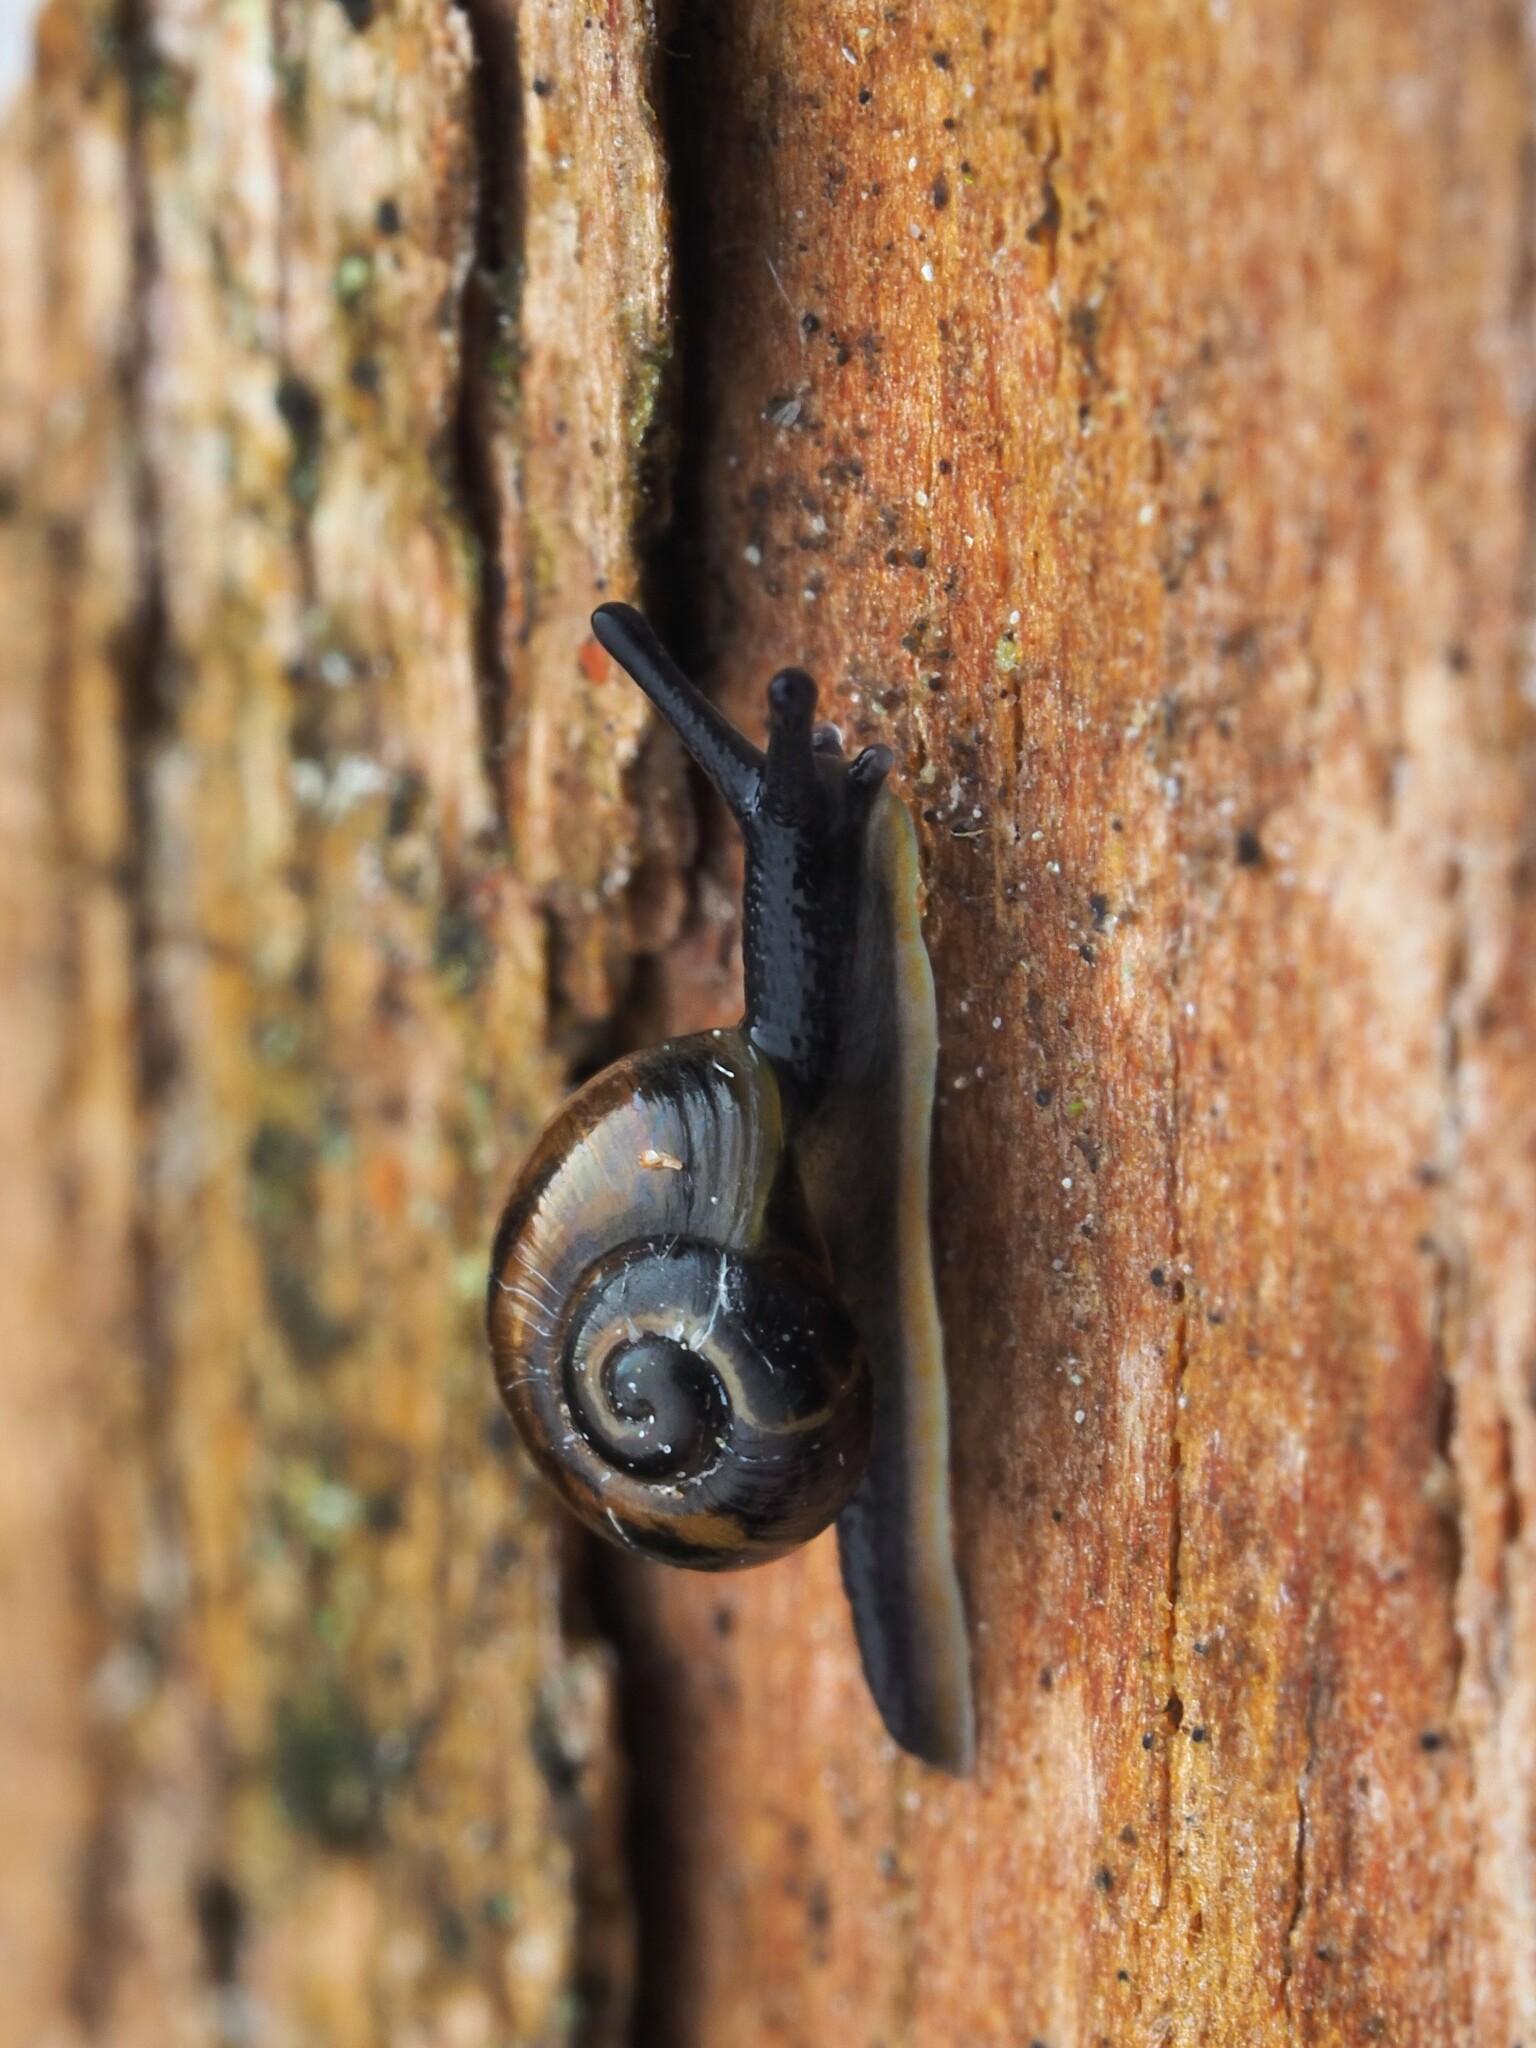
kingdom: Animalia
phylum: Mollusca
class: Gastropoda
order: Stylommatophora
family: Charopidae
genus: Flammulina
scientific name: Flammulina perdita
